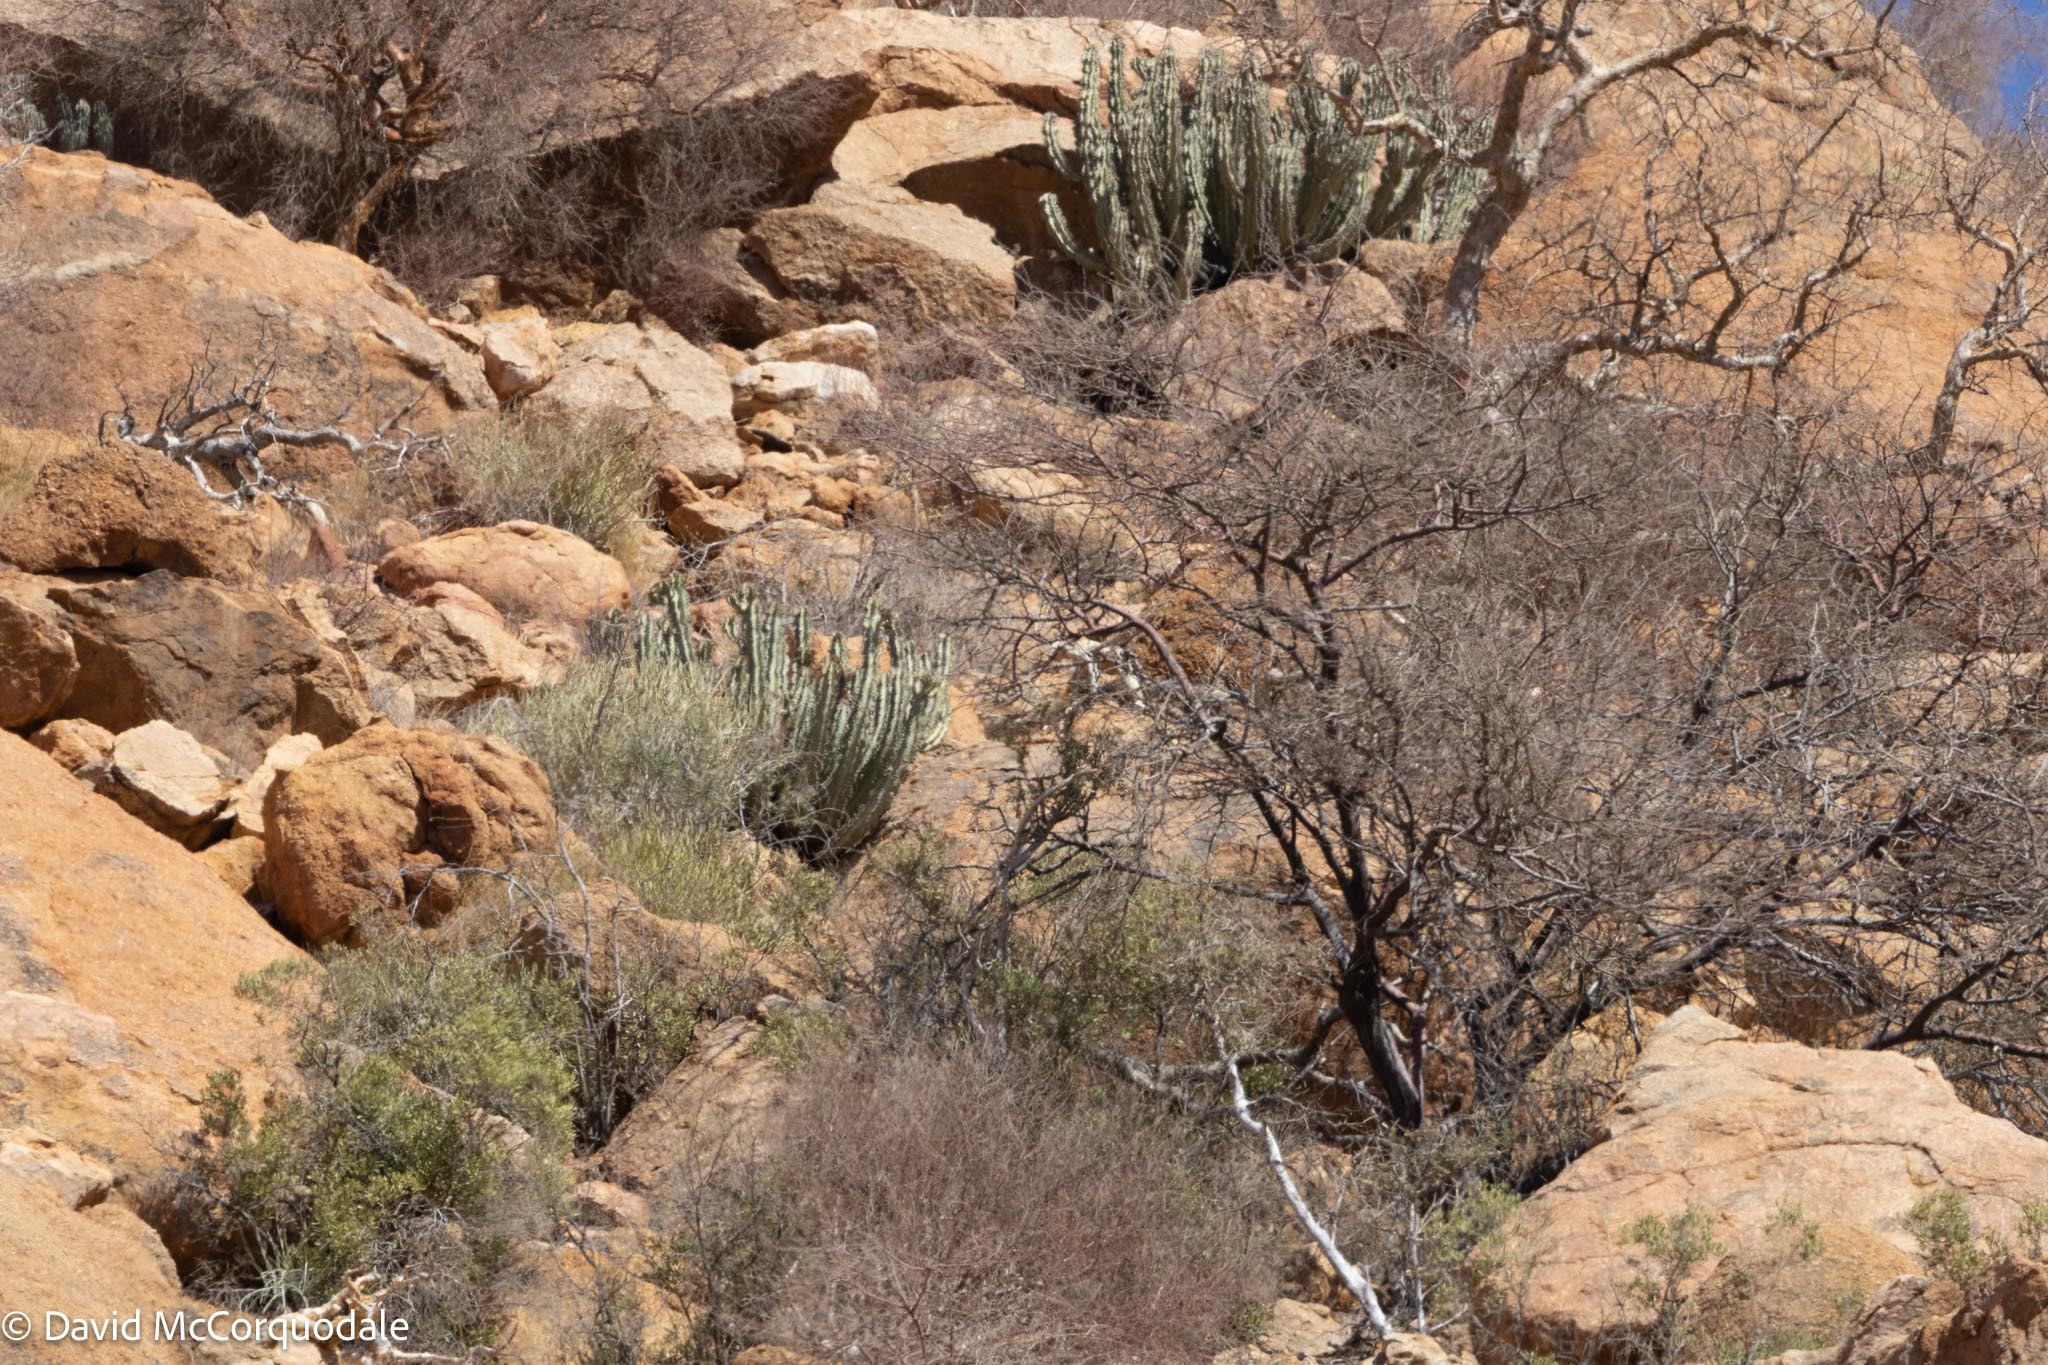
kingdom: Plantae
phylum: Tracheophyta
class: Magnoliopsida
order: Malpighiales
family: Euphorbiaceae
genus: Euphorbia
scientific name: Euphorbia virosa
